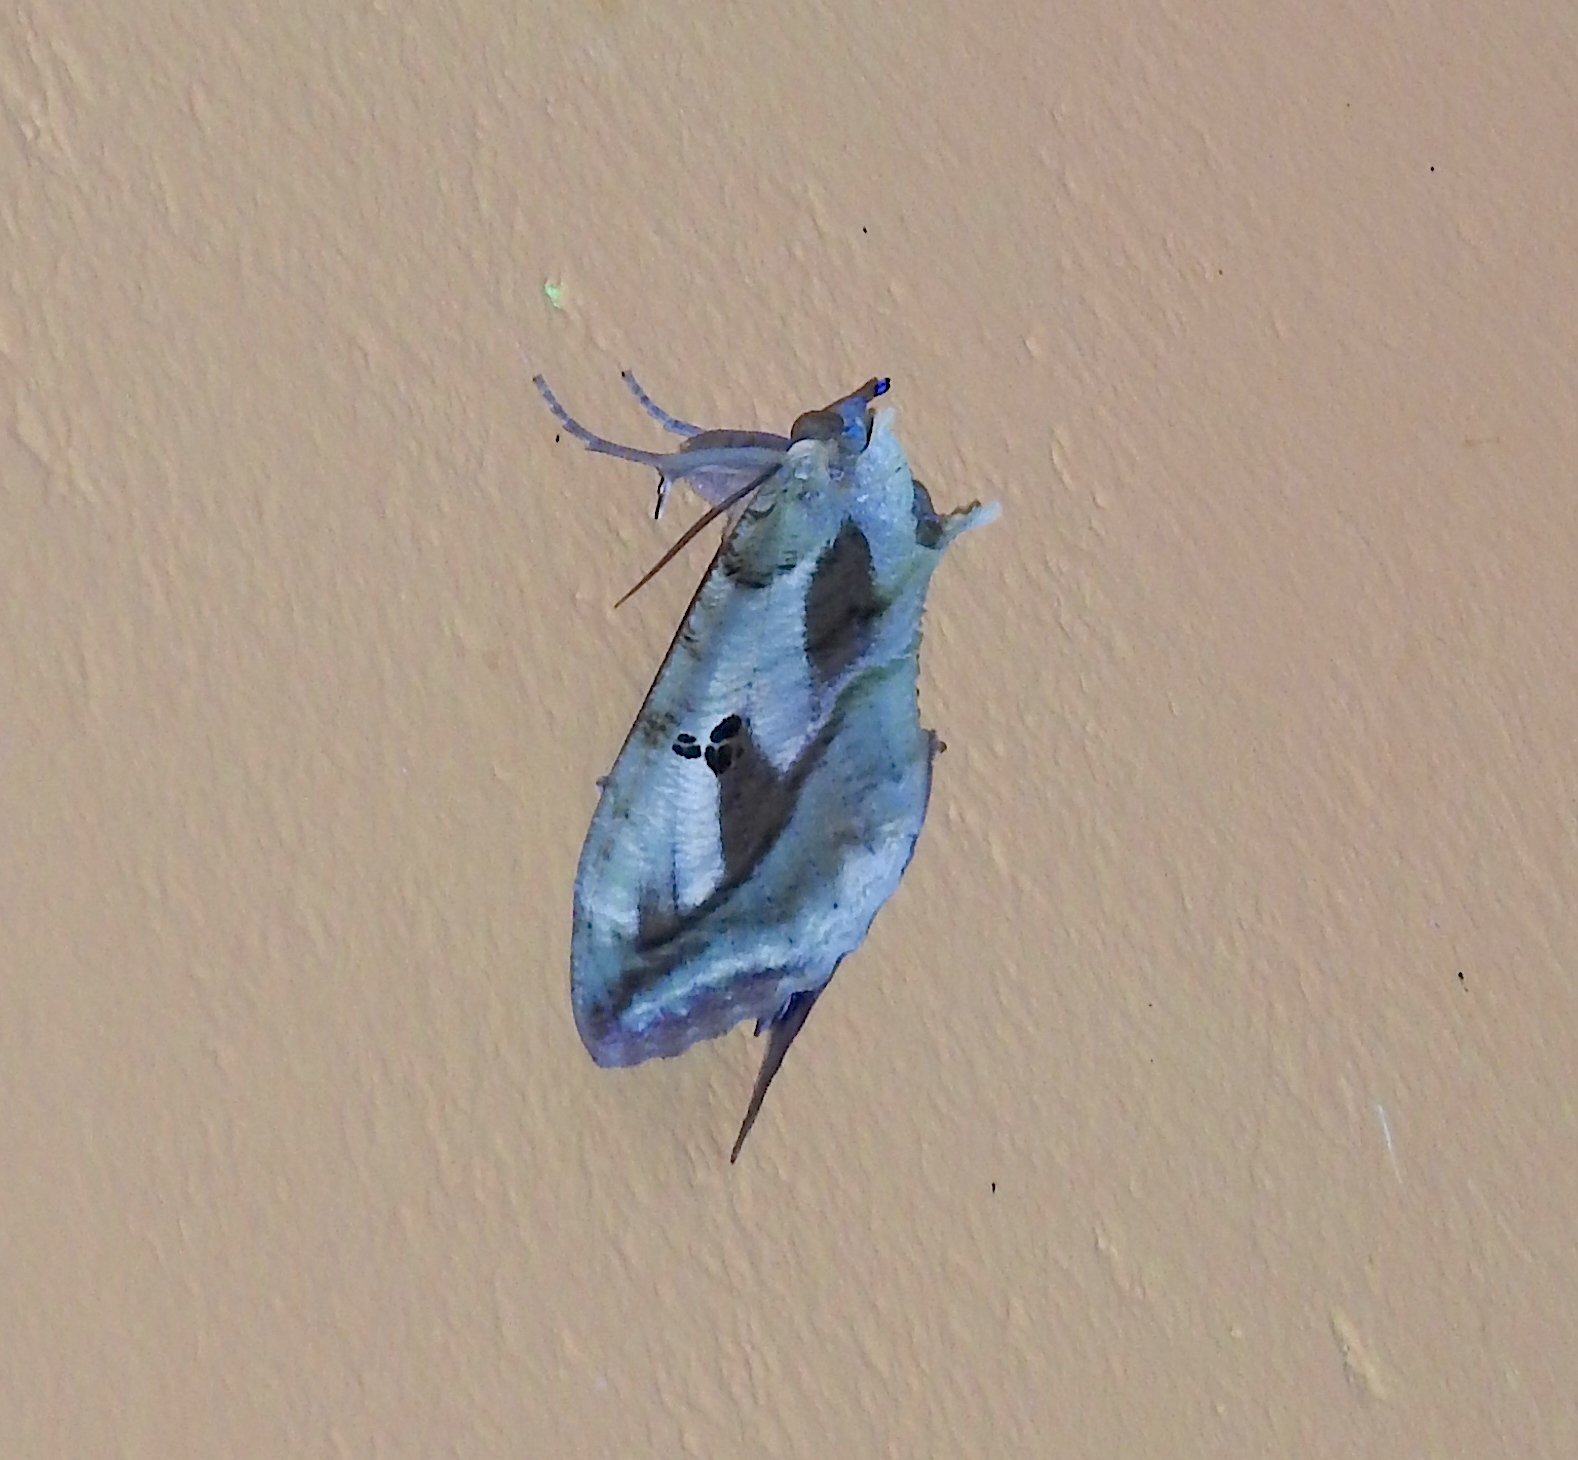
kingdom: Animalia
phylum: Arthropoda
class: Insecta
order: Lepidoptera
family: Erebidae
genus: Eudocima
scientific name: Eudocima materna
